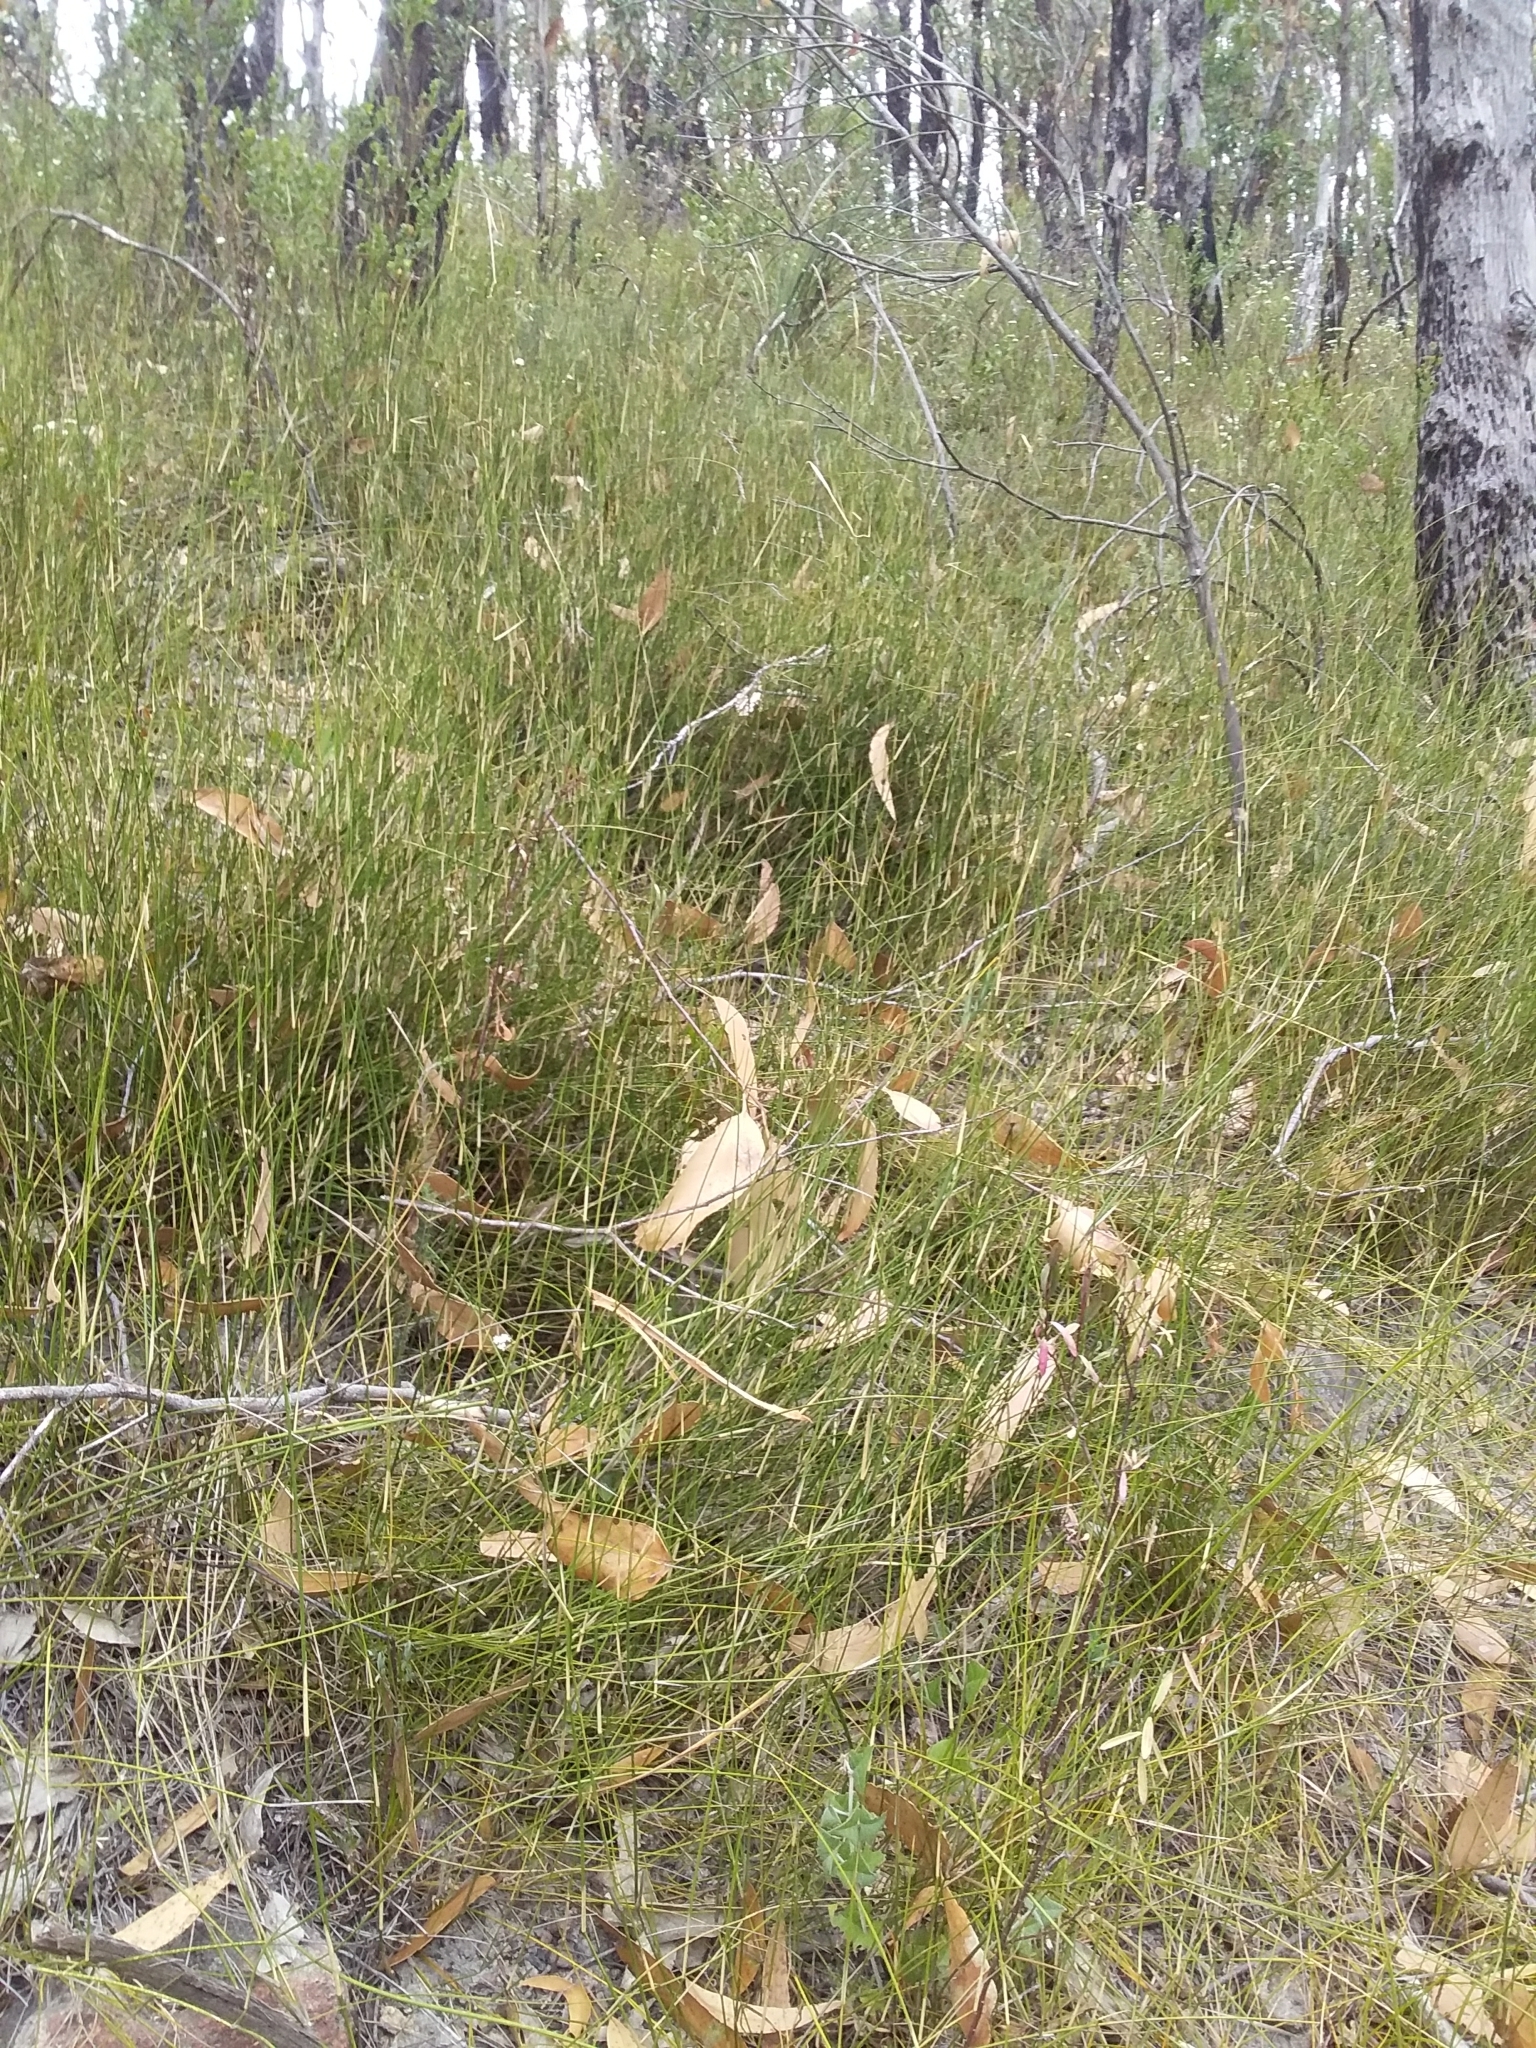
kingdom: Plantae
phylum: Tracheophyta
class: Liliopsida
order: Poales
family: Poaceae
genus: Austrostipa
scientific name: Austrostipa muelleri
